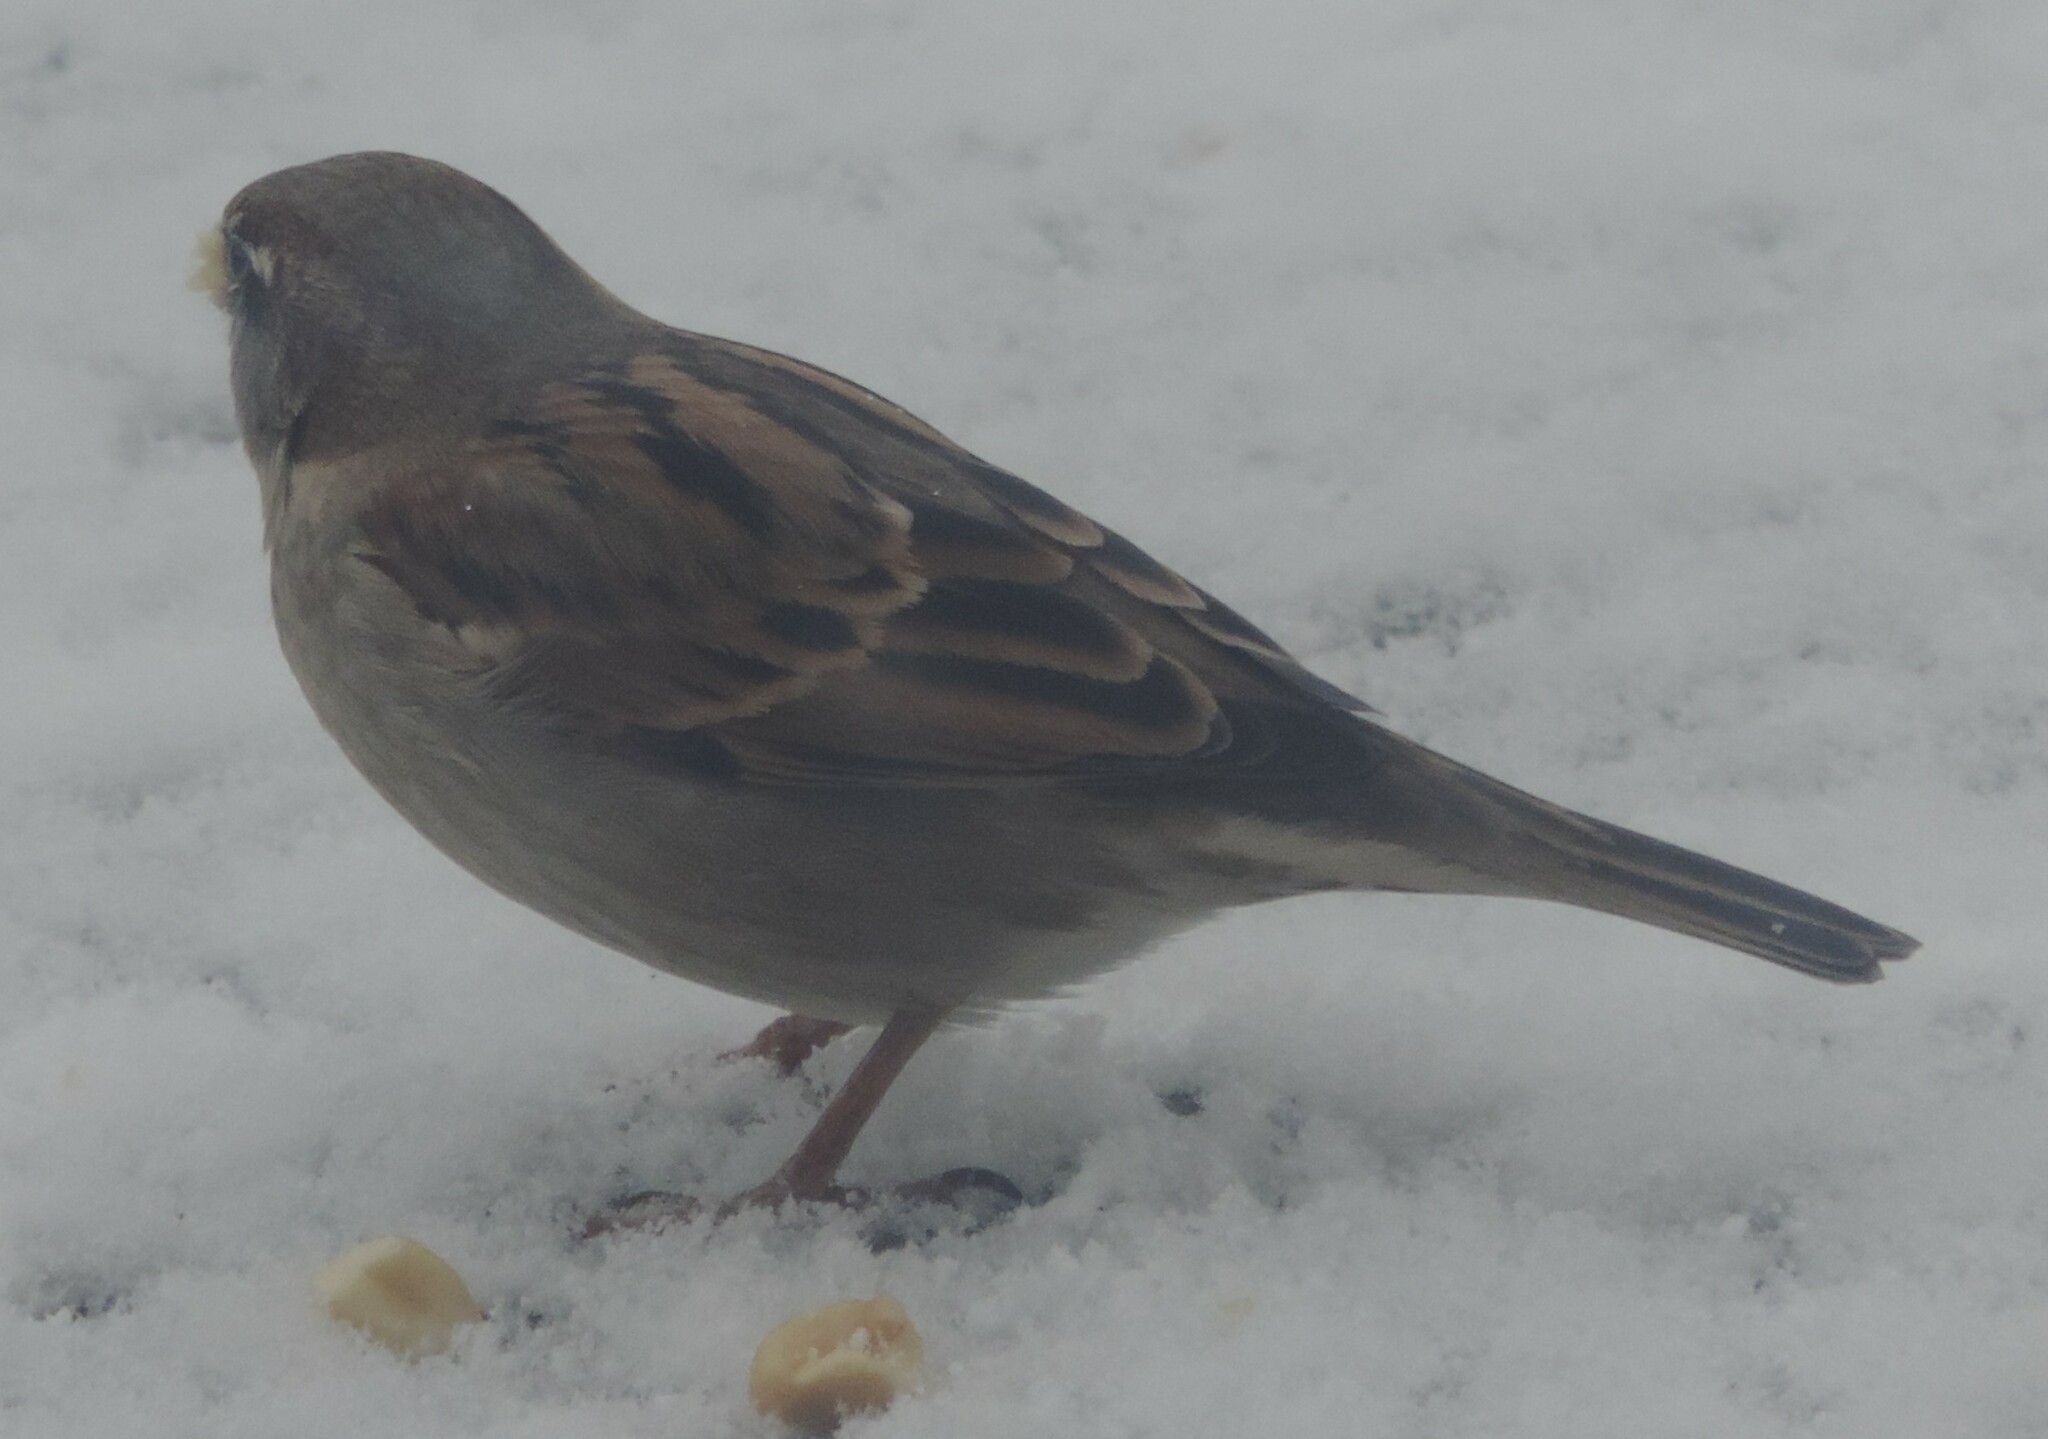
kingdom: Animalia
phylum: Chordata
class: Aves
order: Passeriformes
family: Passeridae
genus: Passer
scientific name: Passer domesticus
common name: House sparrow
